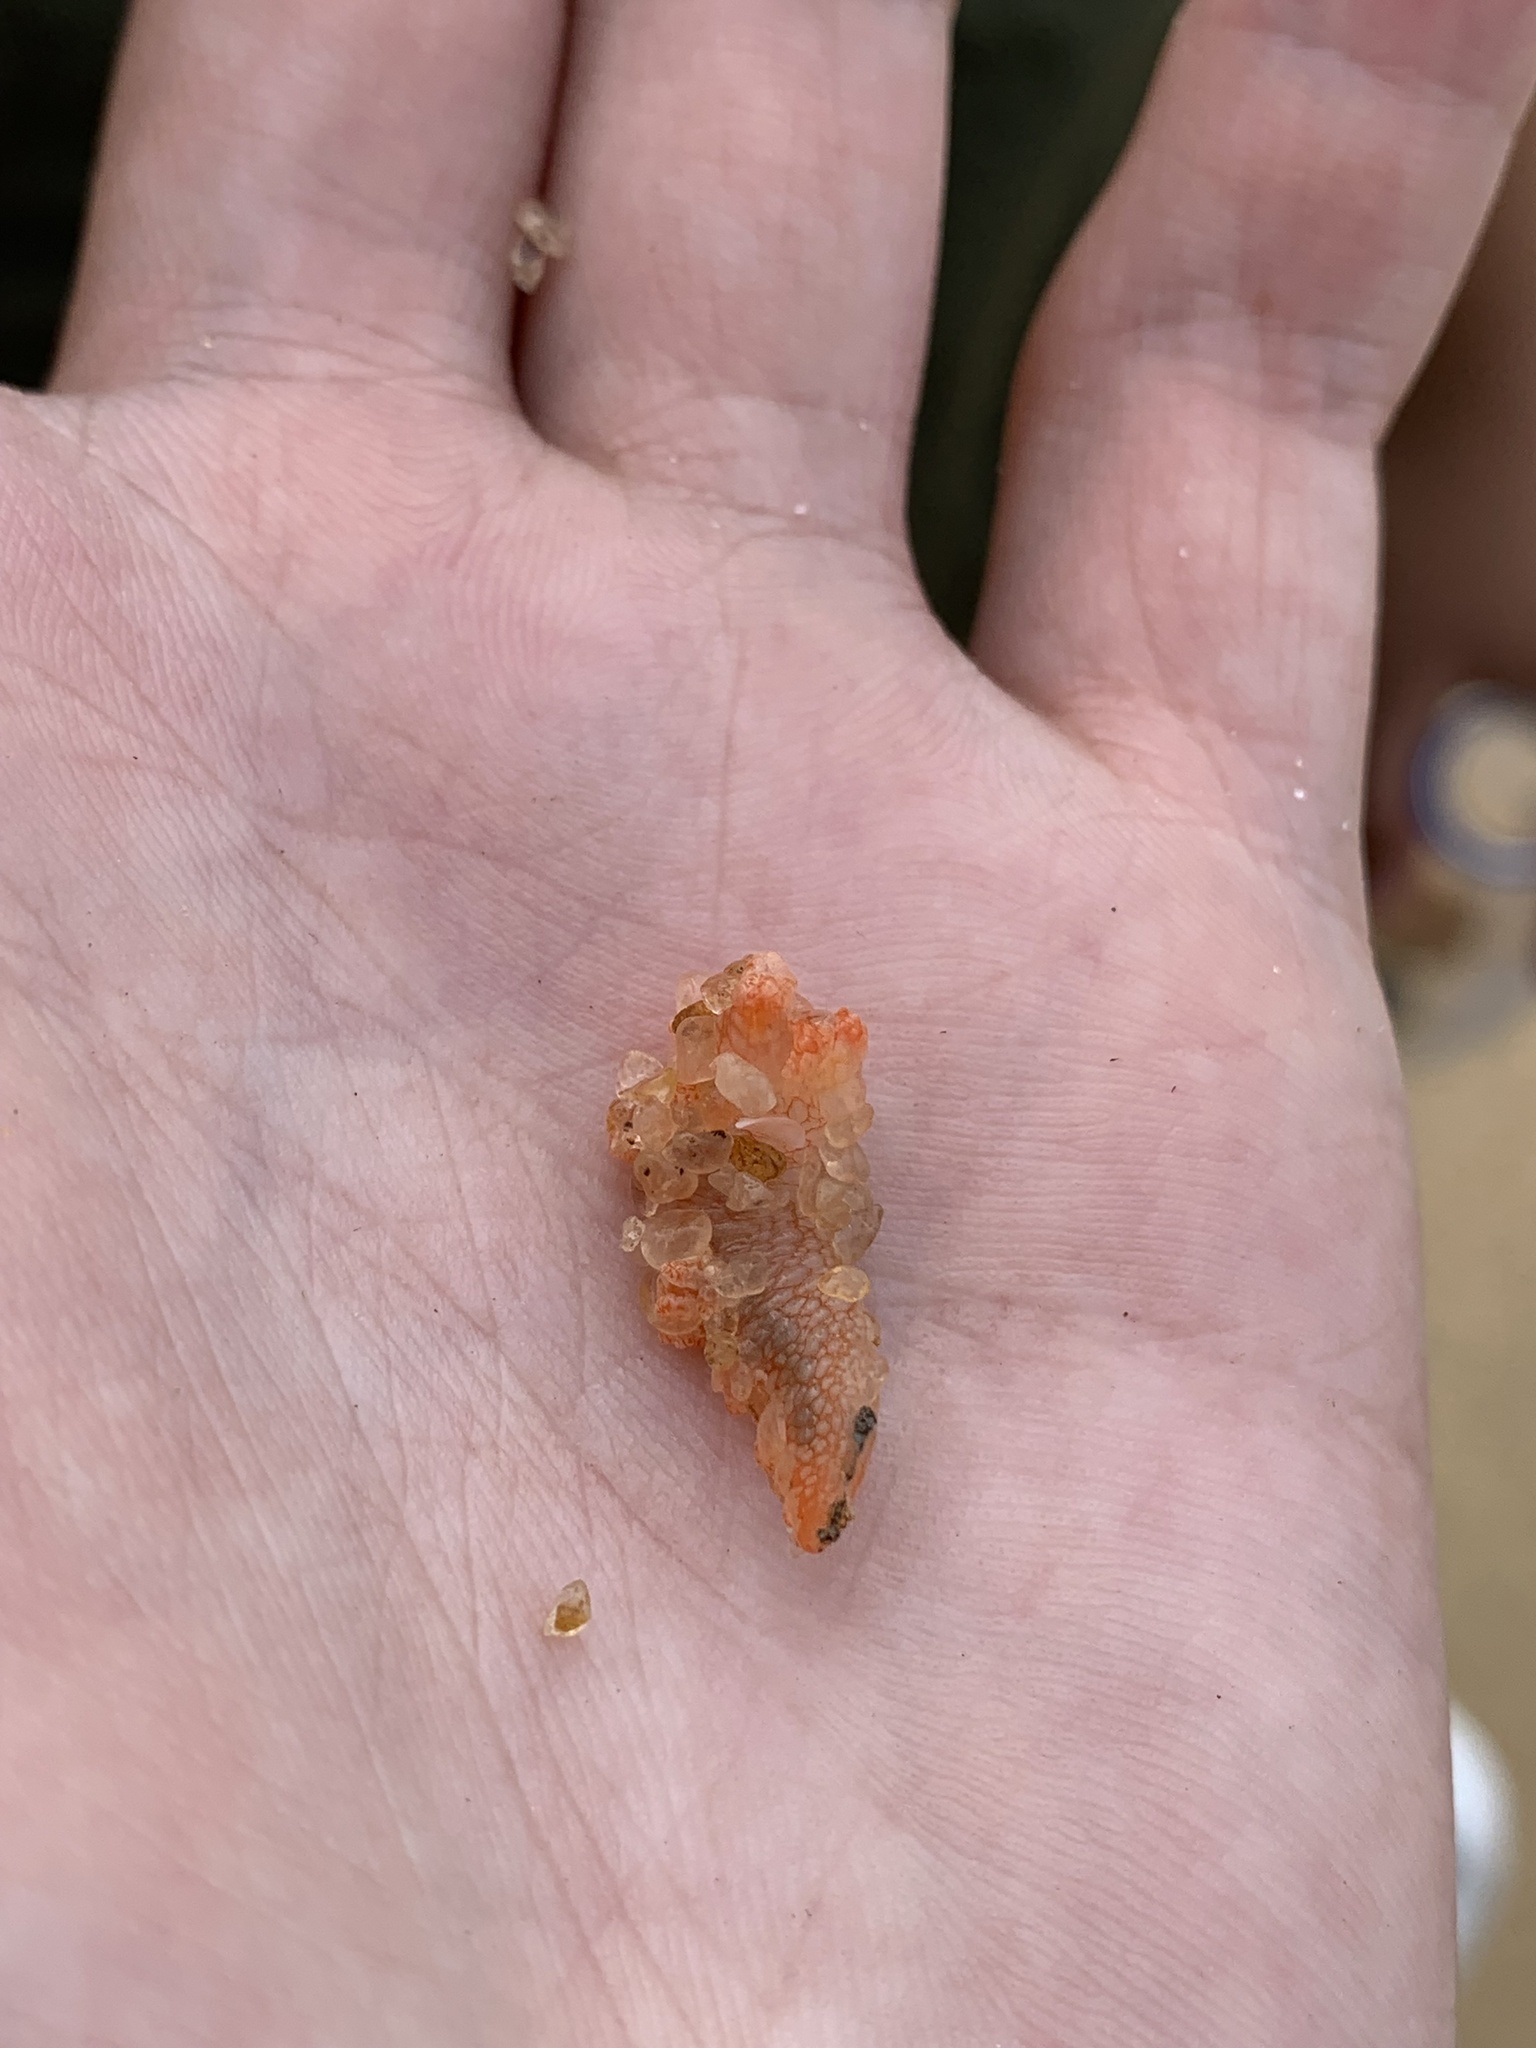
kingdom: Animalia
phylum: Mollusca
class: Gastropoda
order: Nudibranchia
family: Bornellidae
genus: Bornella
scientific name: Bornella calcarata
